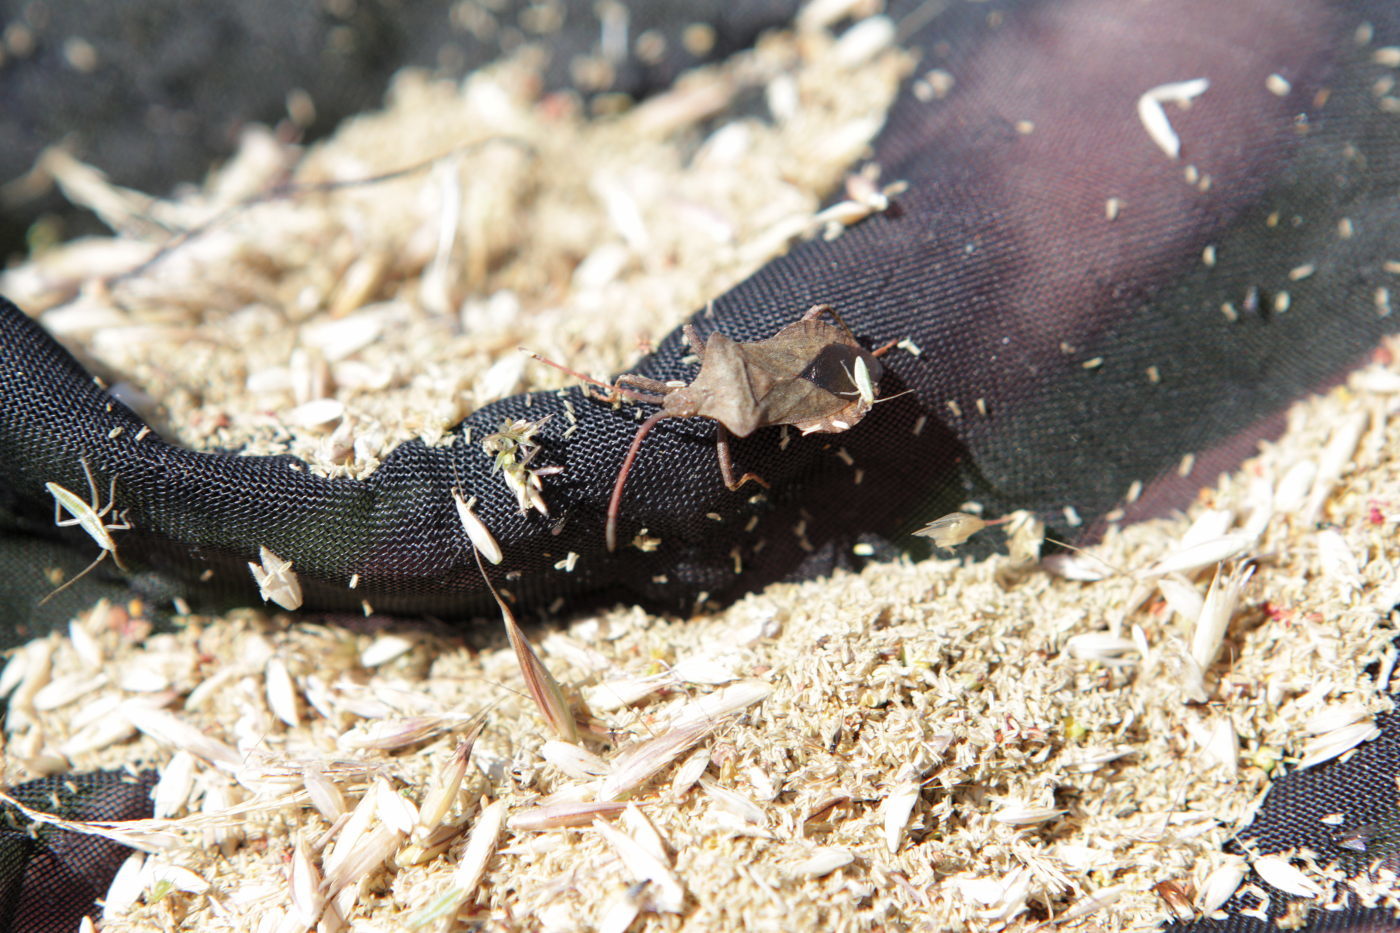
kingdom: Animalia
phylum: Arthropoda
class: Insecta
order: Hemiptera
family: Coreidae
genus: Coreus
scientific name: Coreus marginatus
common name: Dock bug
